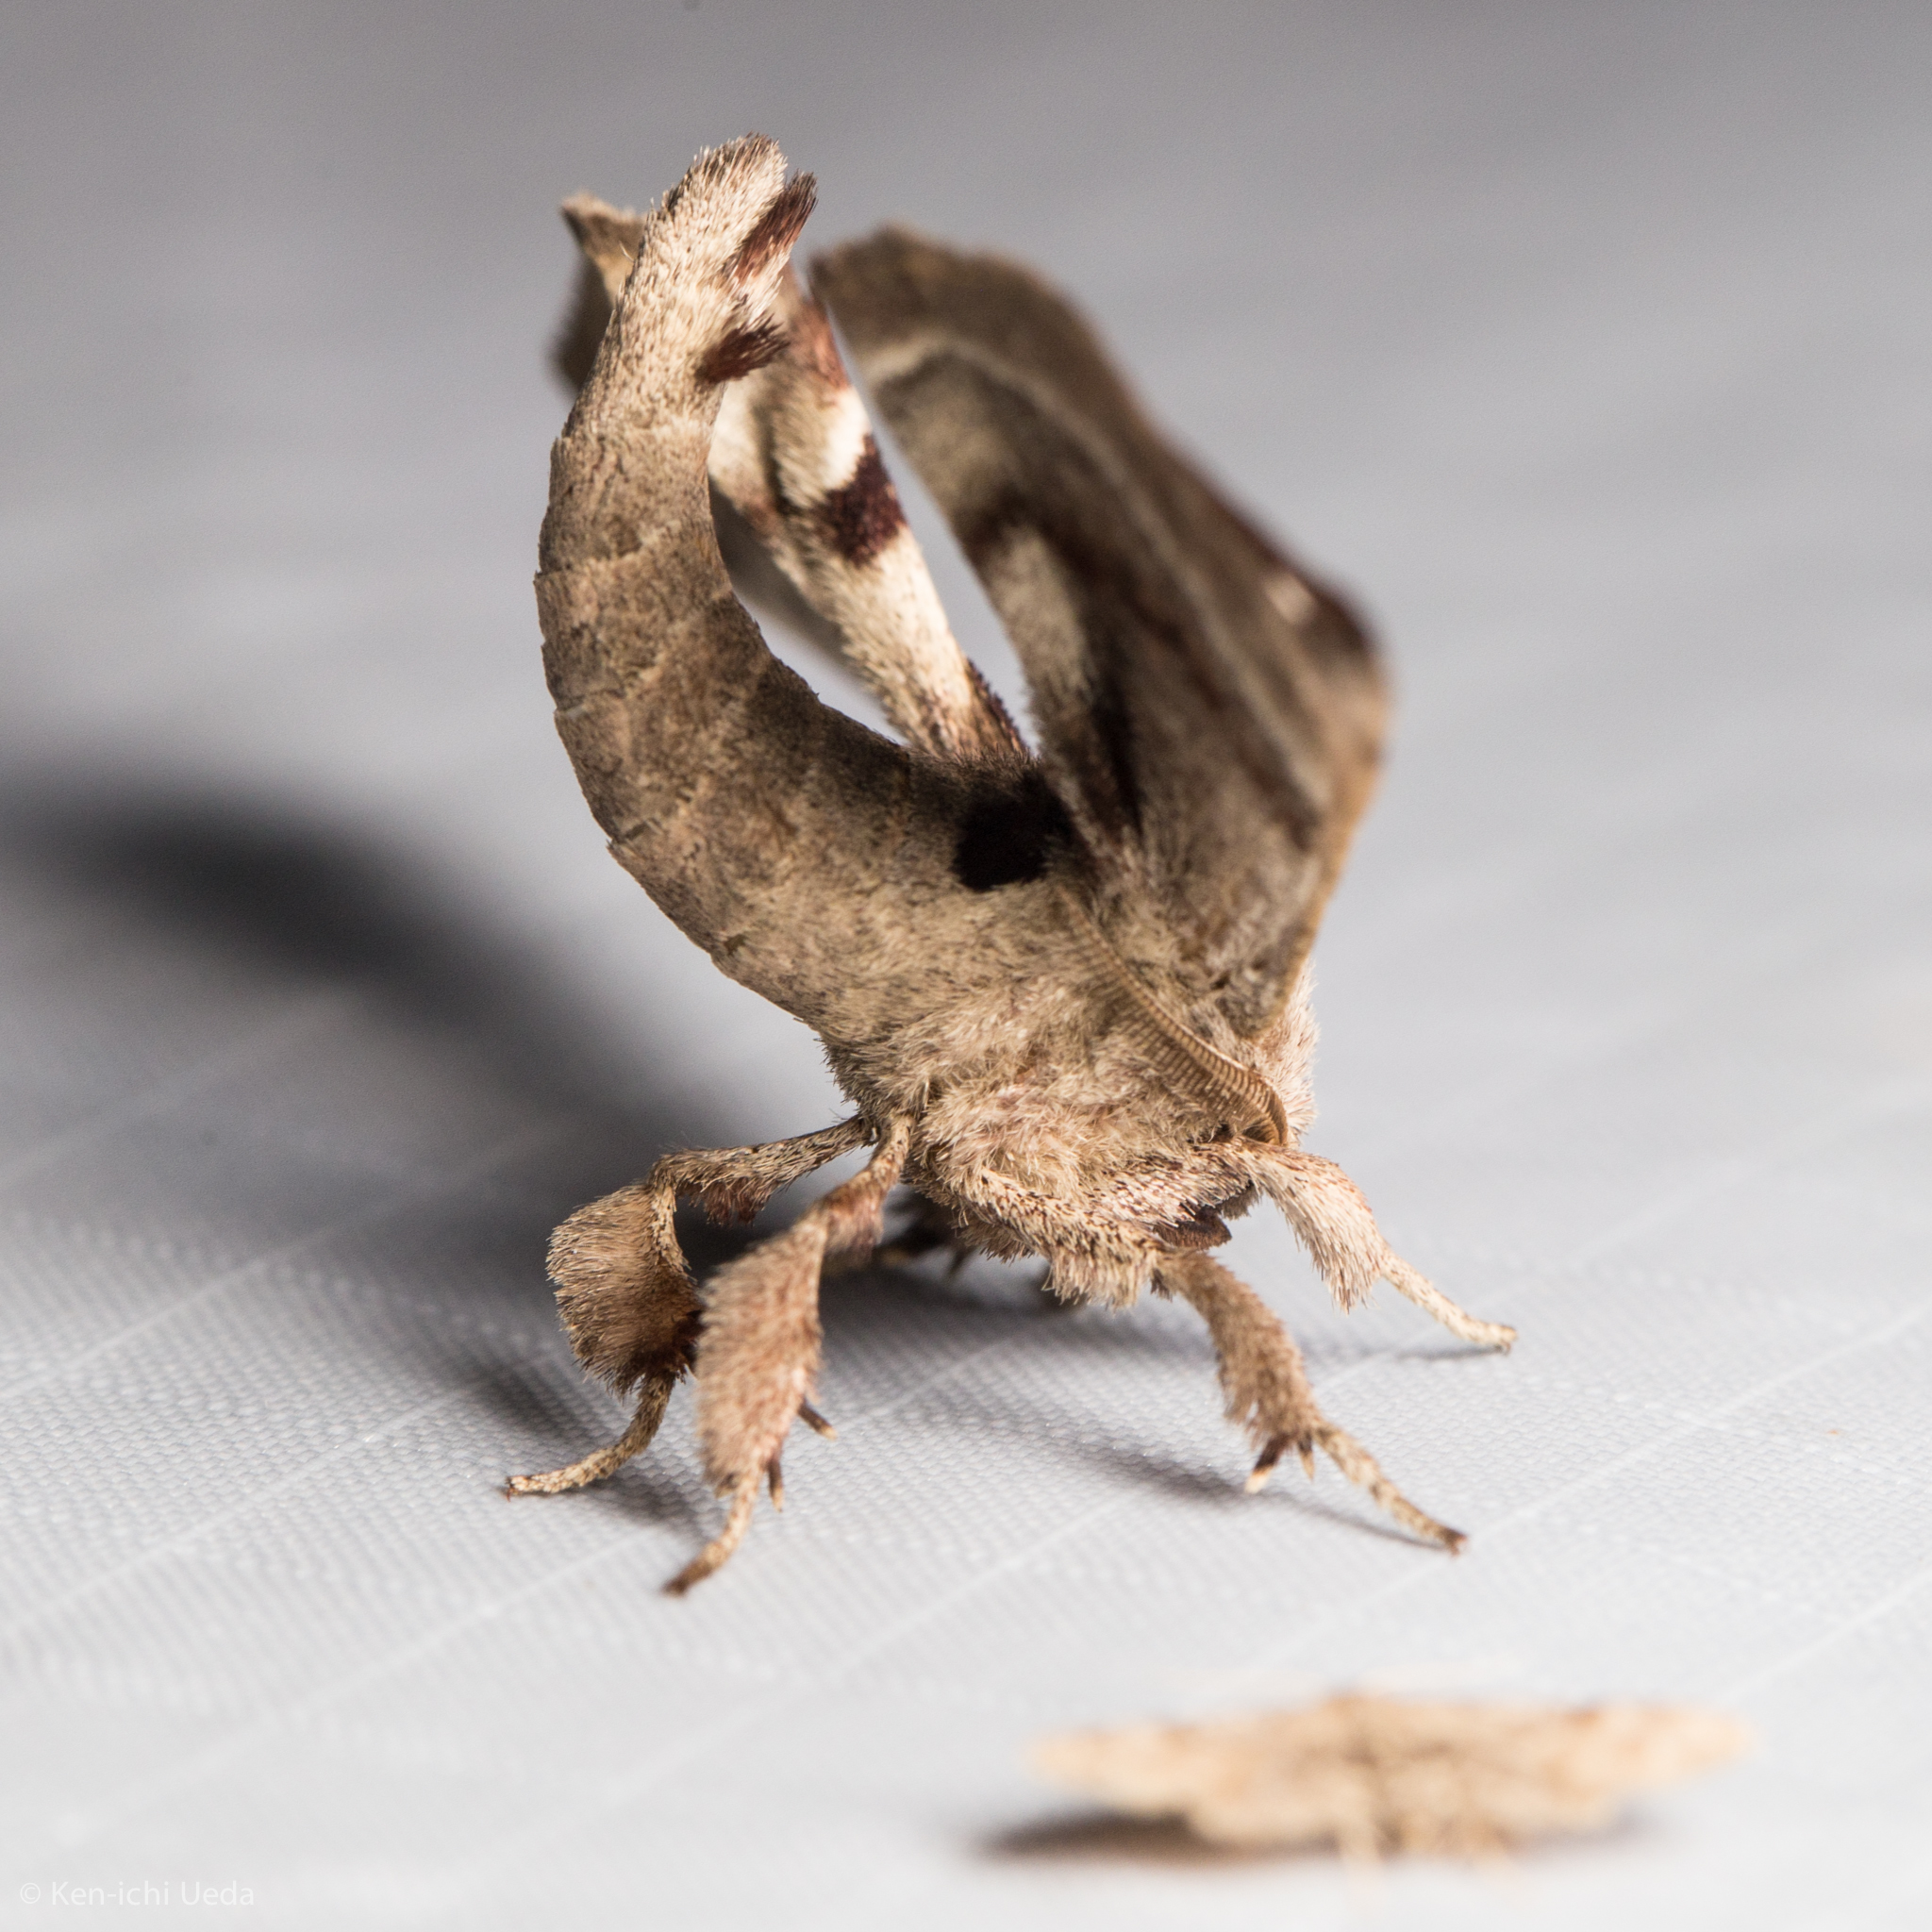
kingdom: Animalia
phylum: Arthropoda
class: Insecta
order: Lepidoptera
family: Apatelodidae
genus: Hygrochroa
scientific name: Hygrochroa Apatelodes torrefacta
